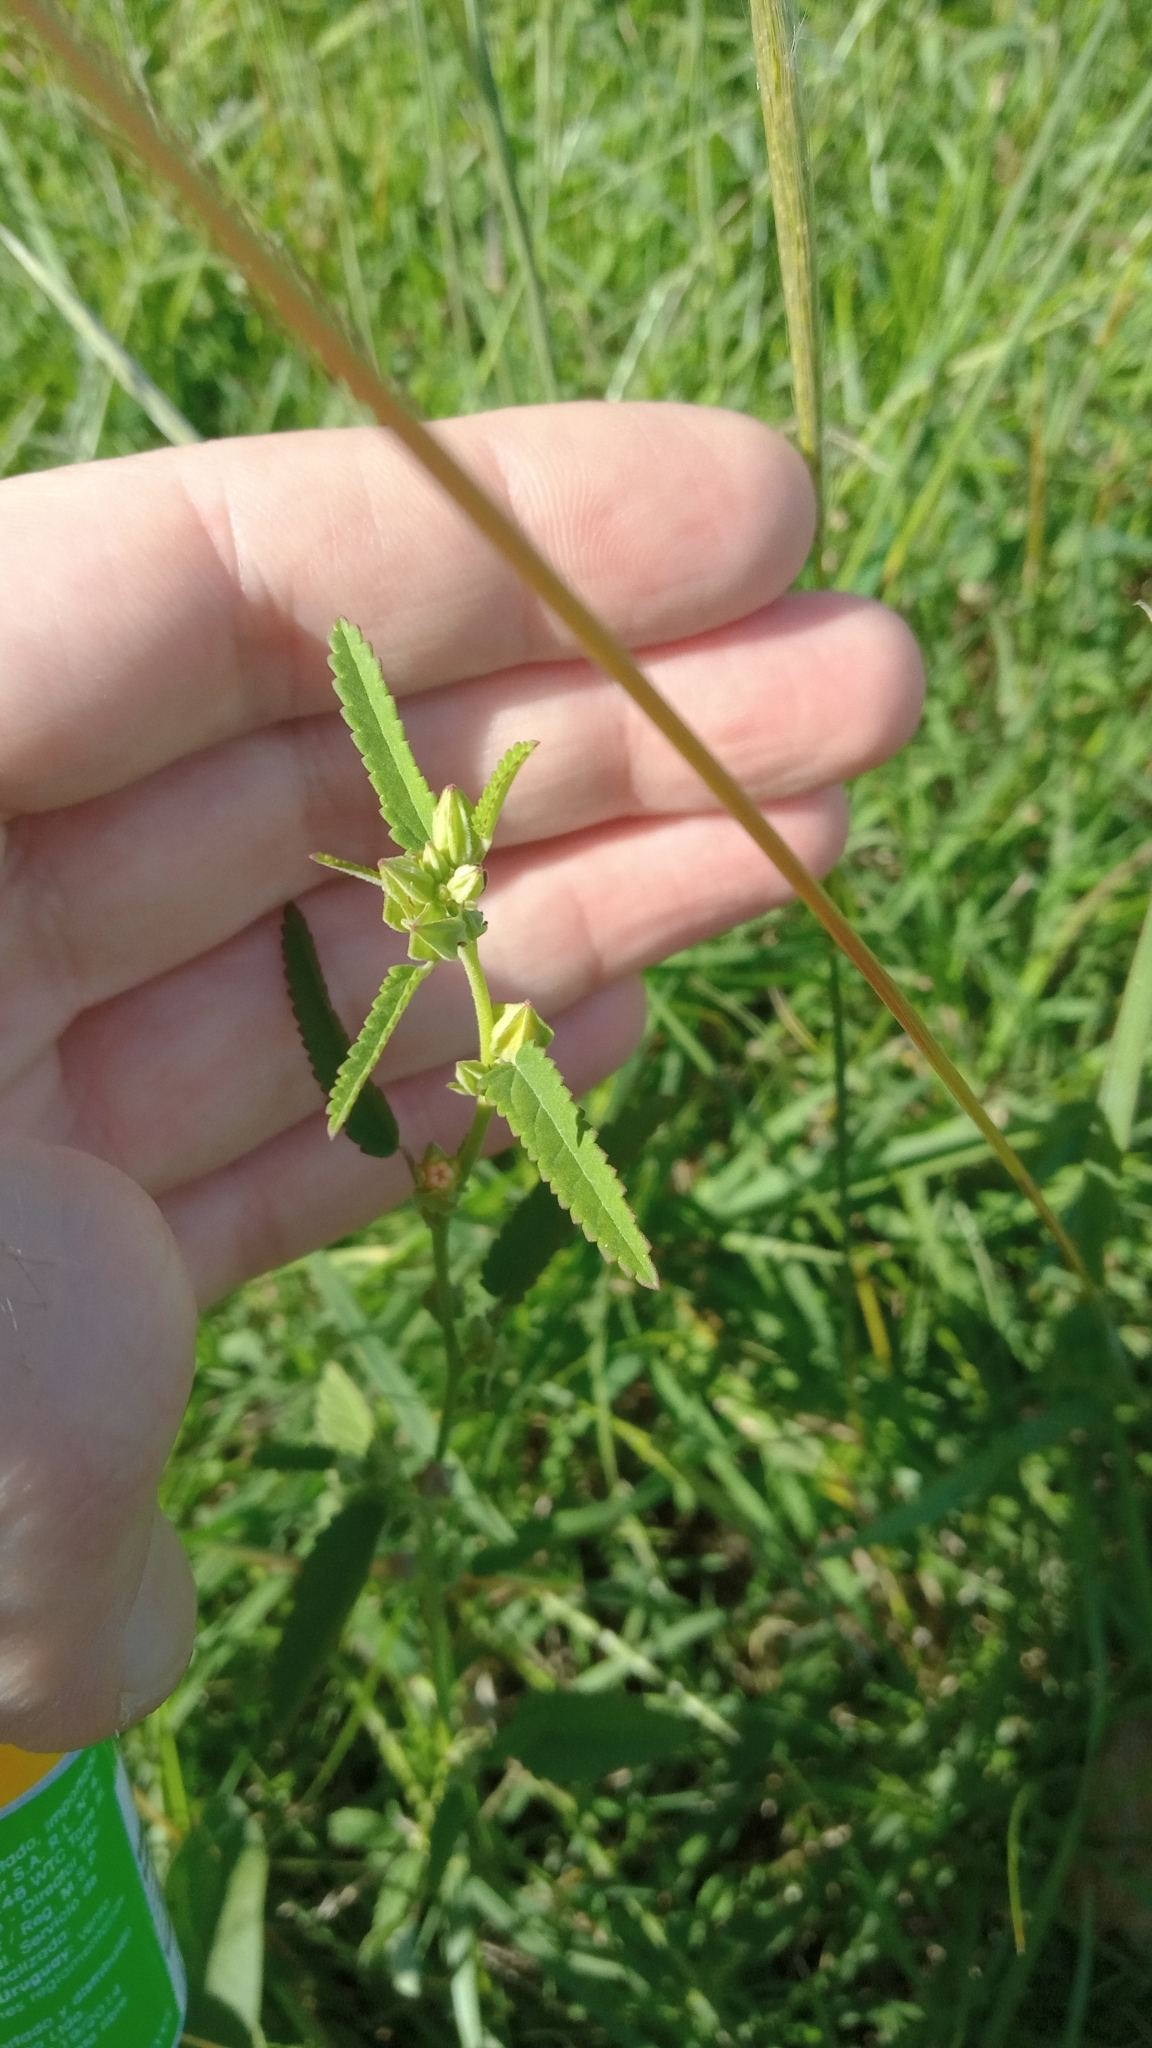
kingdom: Plantae
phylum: Tracheophyta
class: Magnoliopsida
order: Malvales
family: Malvaceae
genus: Sida
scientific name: Sida spinosa
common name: Prickly fanpetals
